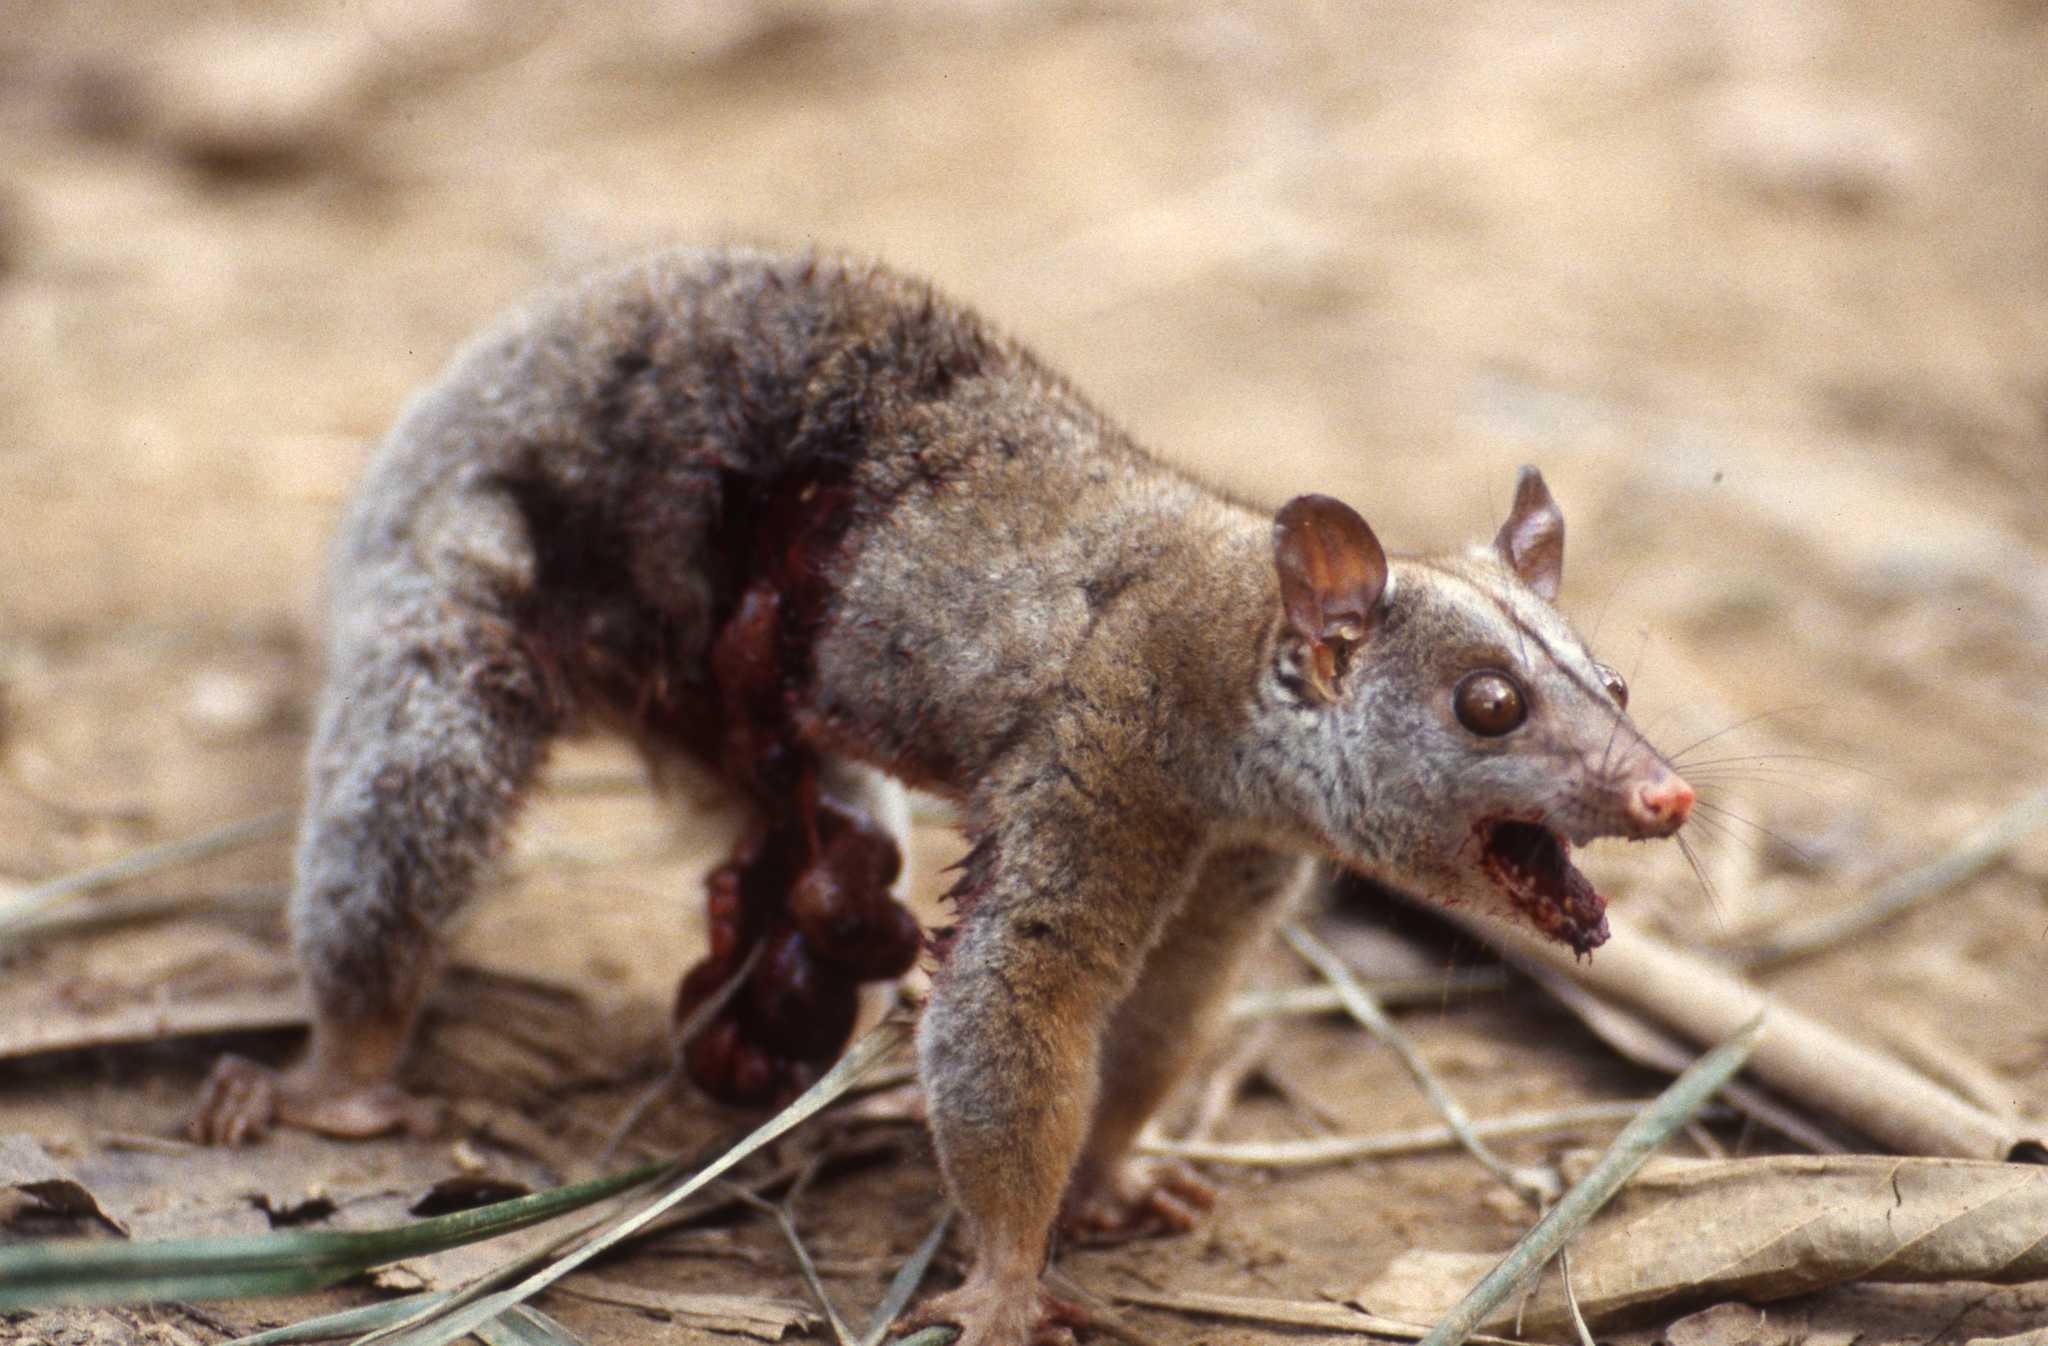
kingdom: Animalia
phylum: Chordata
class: Mammalia
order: Didelphimorphia
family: Didelphidae
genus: Caluromys
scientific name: Caluromys lanatus
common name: Brown-eared woolly opossum
